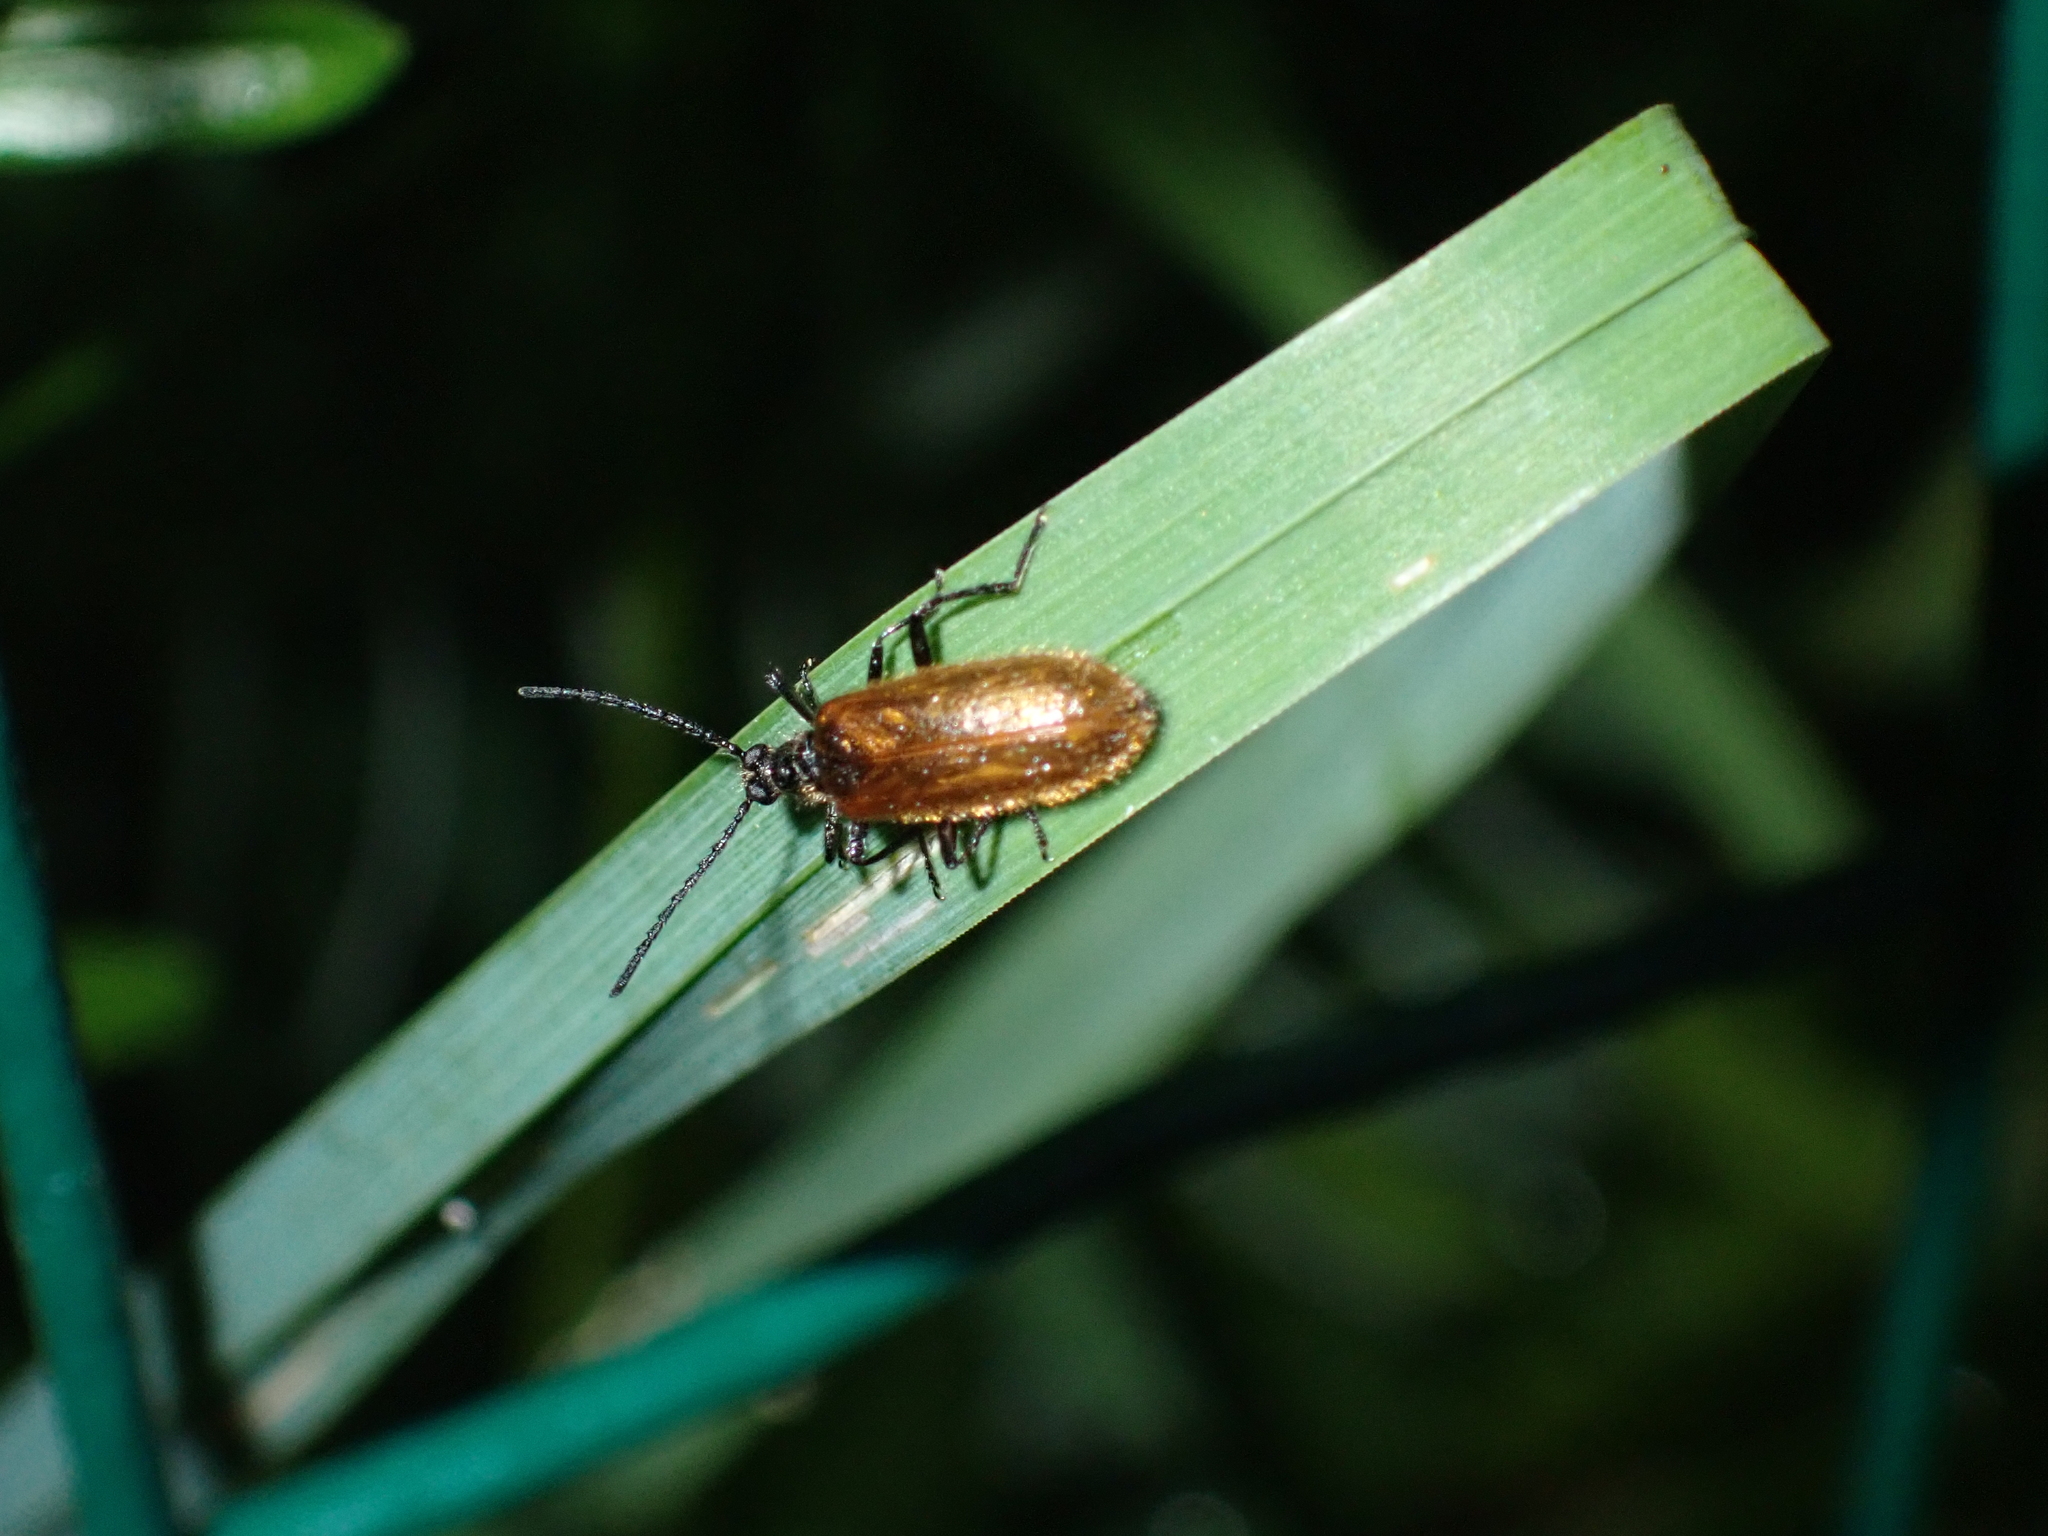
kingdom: Animalia
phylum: Arthropoda
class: Insecta
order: Coleoptera
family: Tenebrionidae
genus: Lagria
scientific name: Lagria hirta
